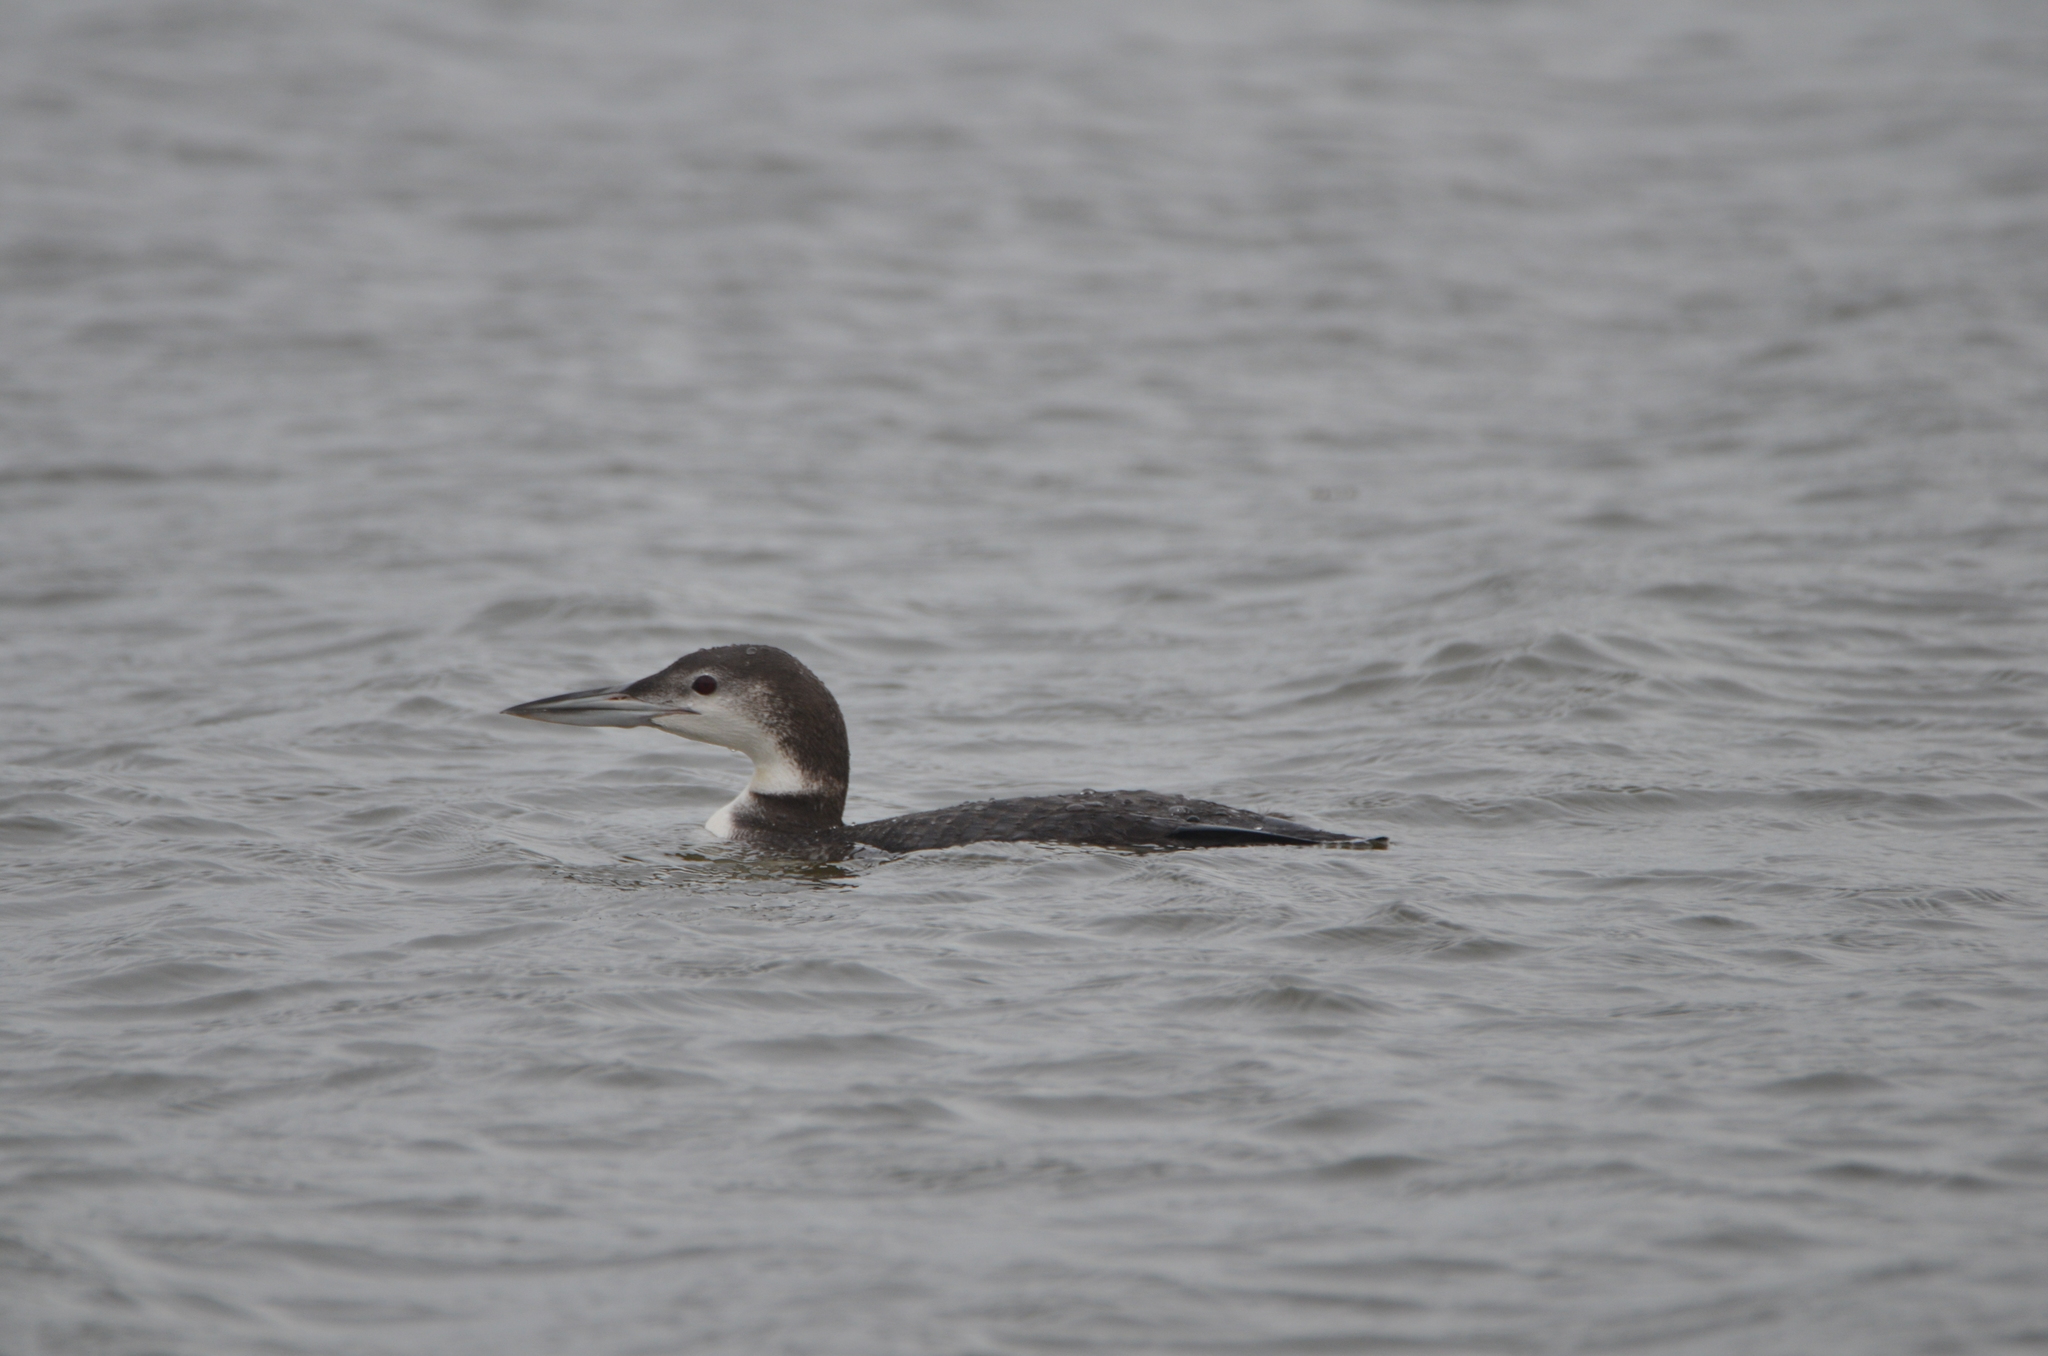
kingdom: Animalia
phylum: Chordata
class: Aves
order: Gaviiformes
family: Gaviidae
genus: Gavia
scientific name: Gavia immer
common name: Common loon
